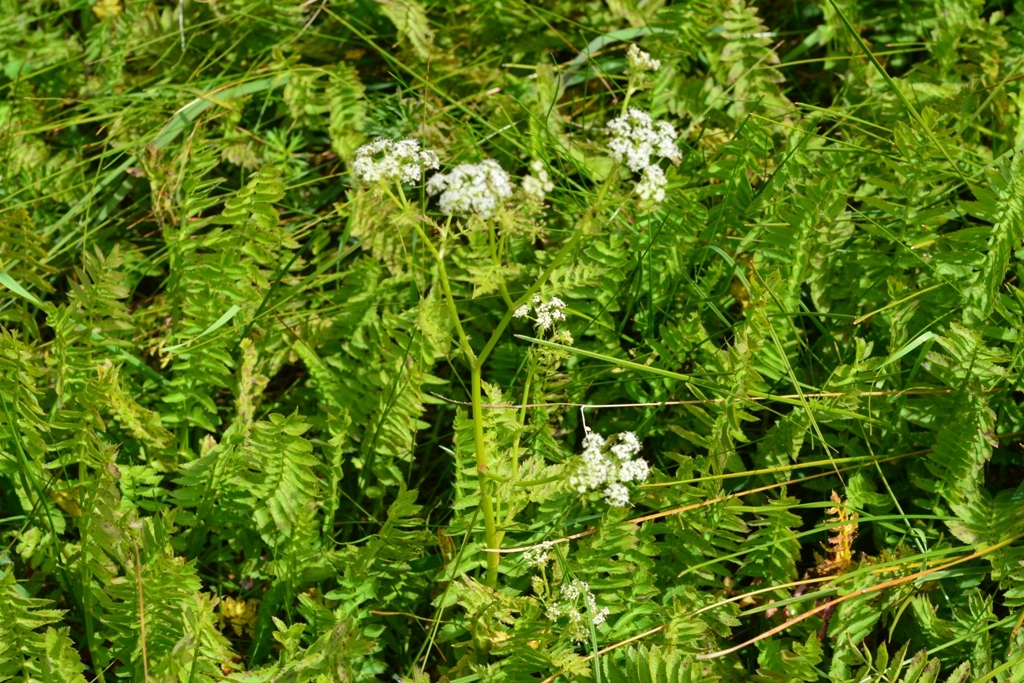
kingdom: Plantae
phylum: Tracheophyta
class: Magnoliopsida
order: Apiales
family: Apiaceae
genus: Berula
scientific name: Berula erecta
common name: Lesser water-parsnip
